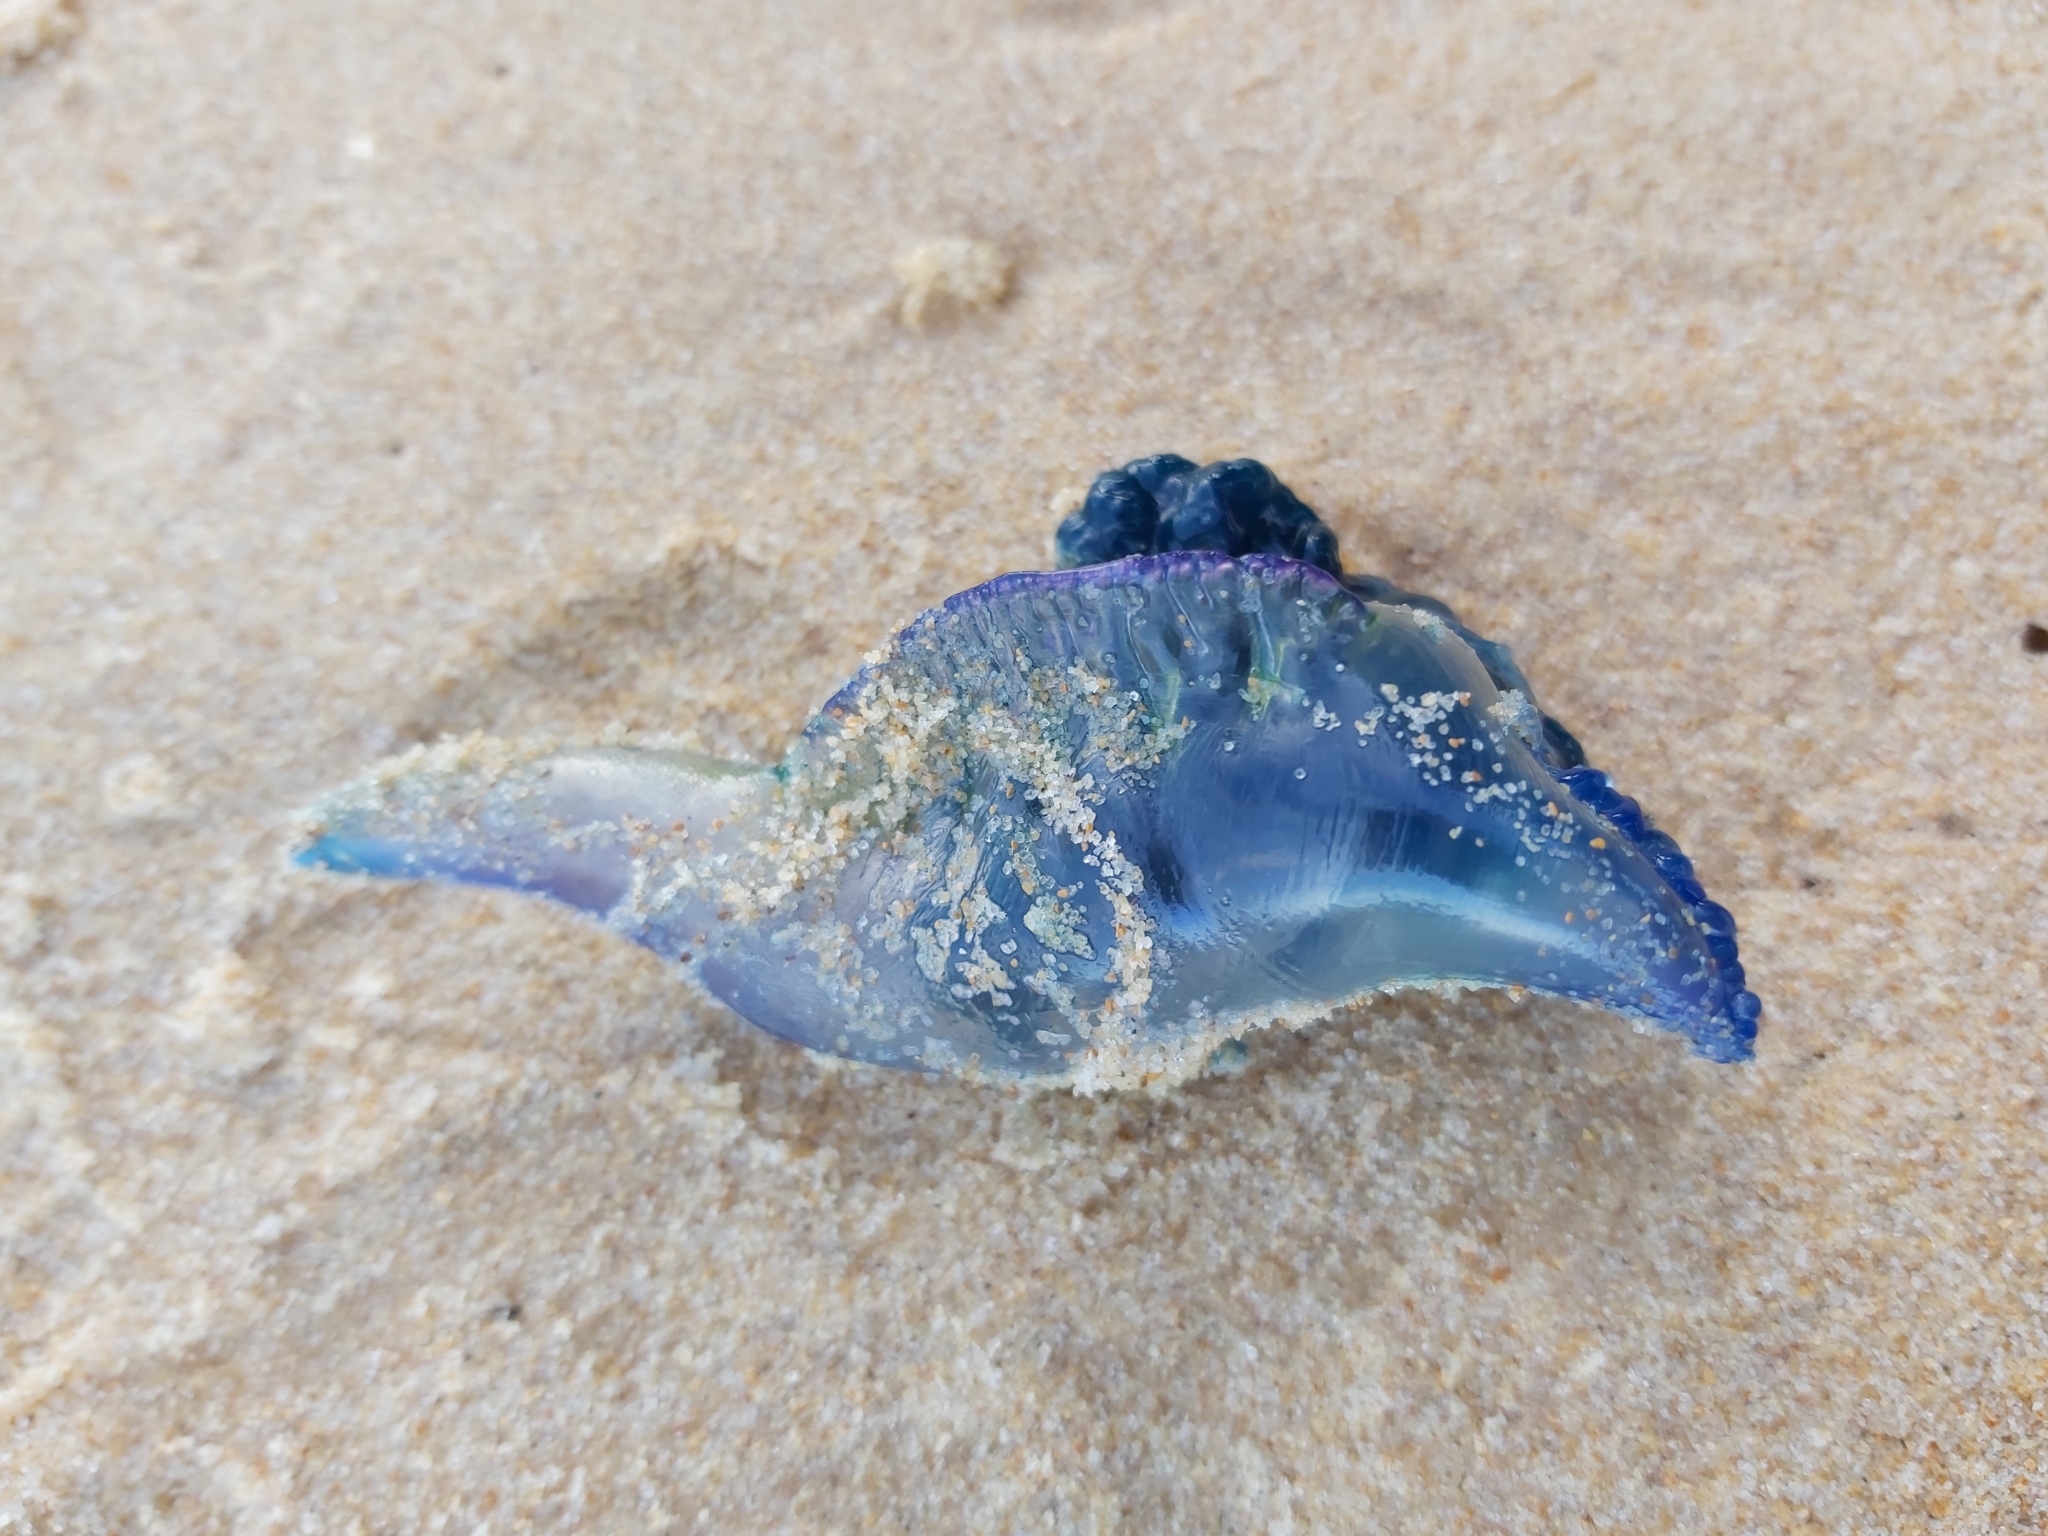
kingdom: Animalia
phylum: Cnidaria
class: Hydrozoa
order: Siphonophorae
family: Physaliidae
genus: Physalia
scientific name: Physalia physalis
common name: Portuguese man-of-war
